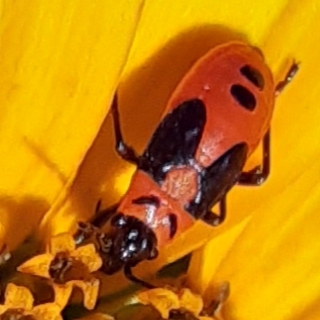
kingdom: Animalia
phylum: Arthropoda
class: Insecta
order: Hemiptera
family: Lygaeidae
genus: Lygaeus
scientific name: Lygaeus turcicus
